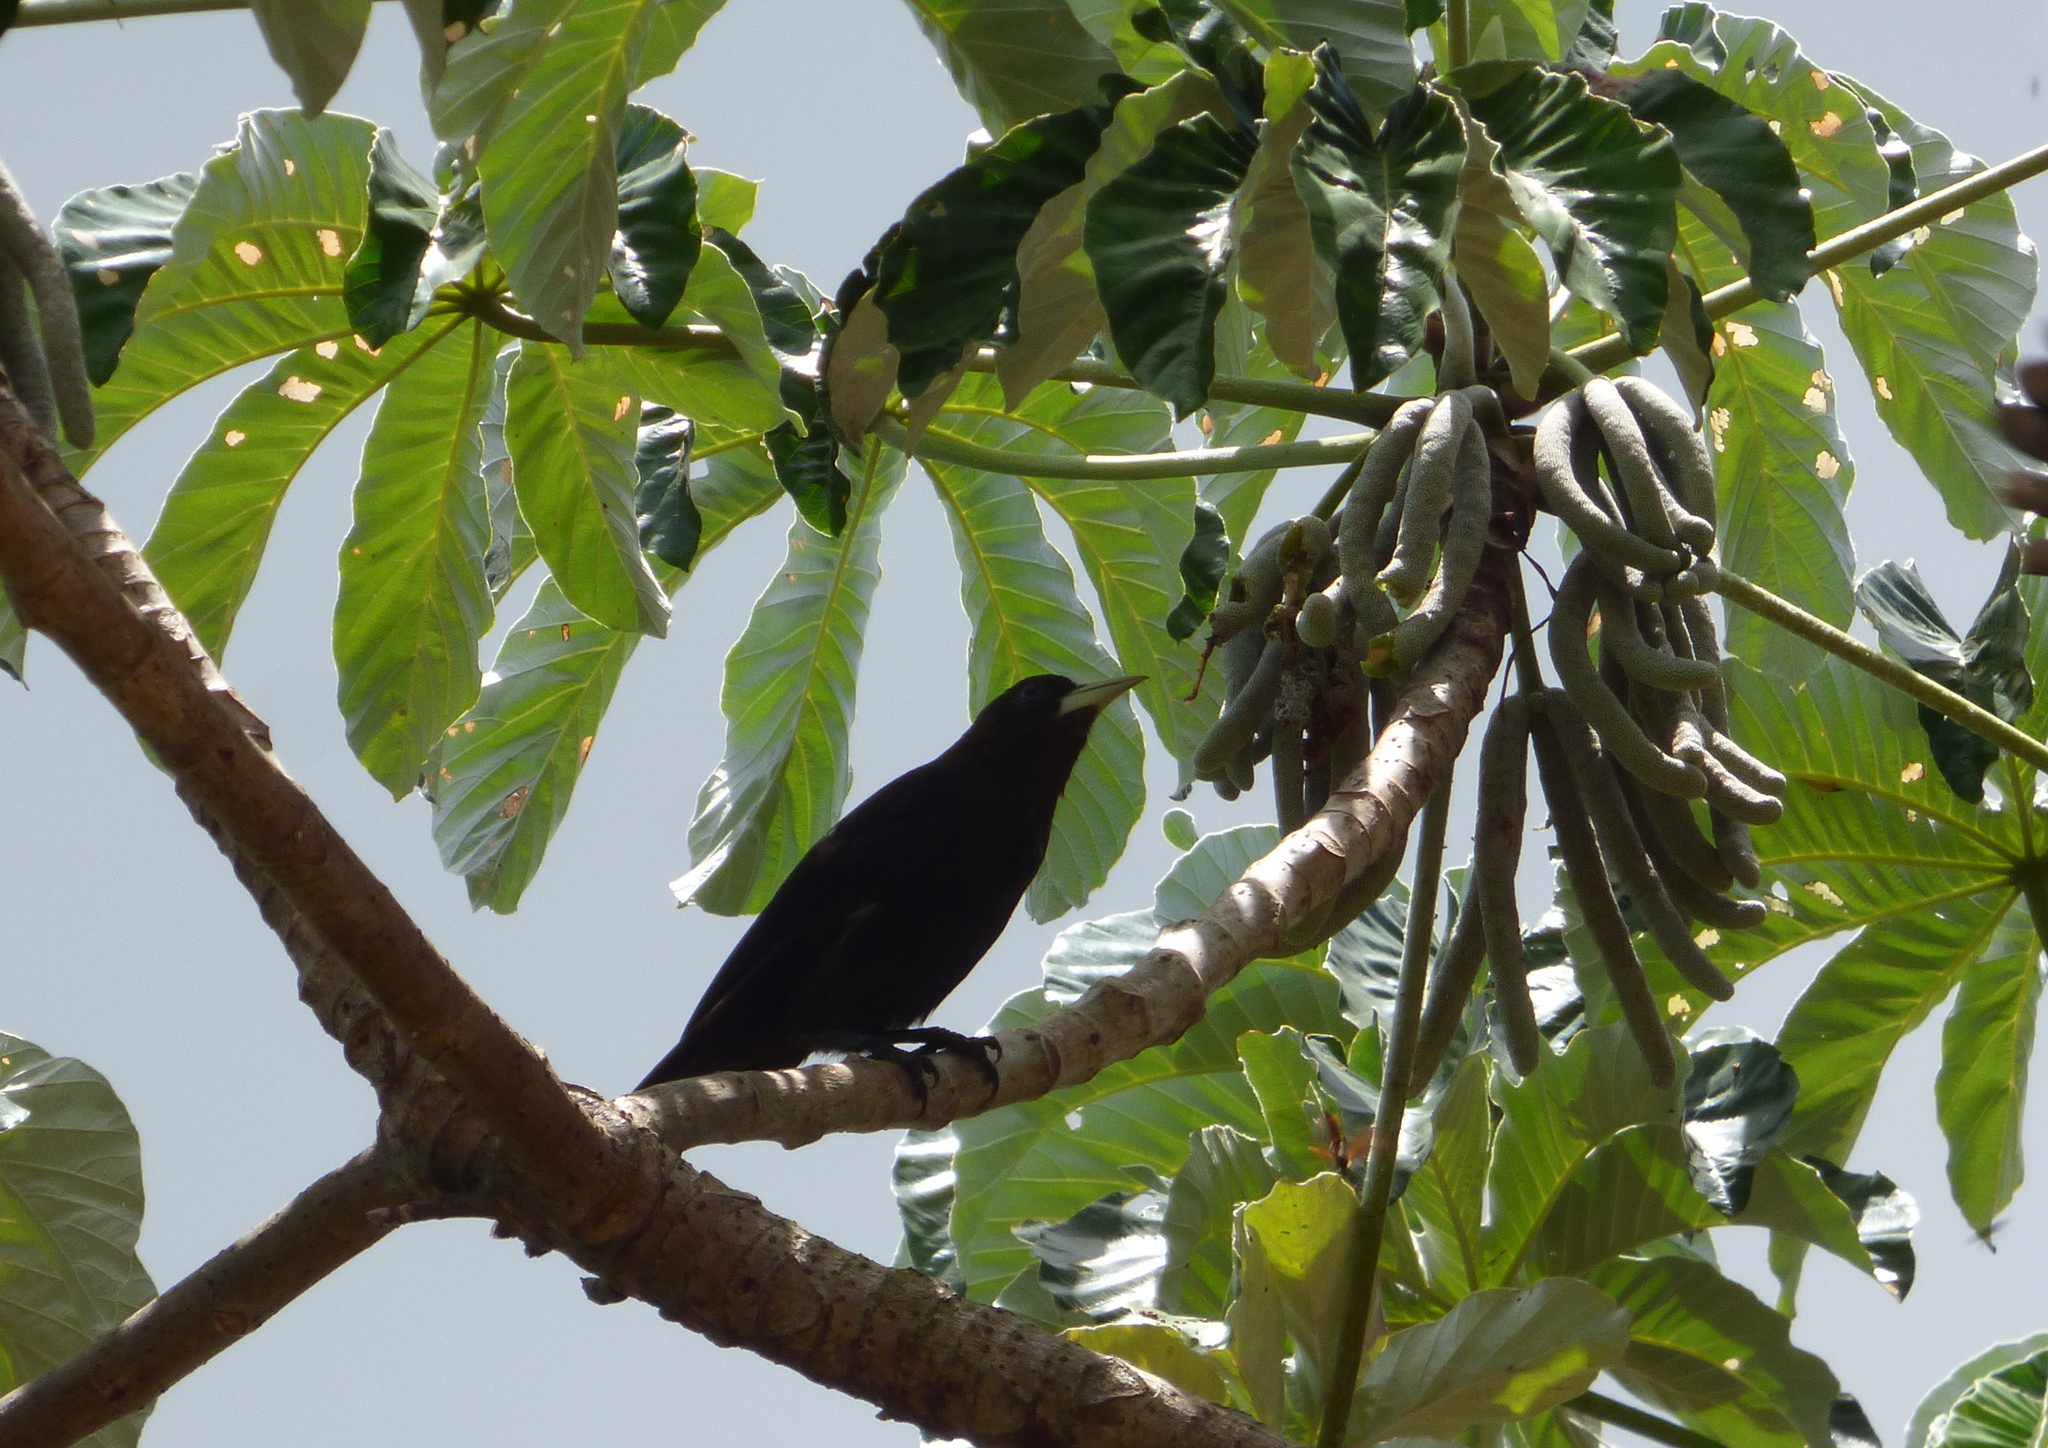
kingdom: Animalia
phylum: Chordata
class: Aves
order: Passeriformes
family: Icteridae
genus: Cacicus
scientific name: Cacicus haemorrhous
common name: Red-rumped cacique
